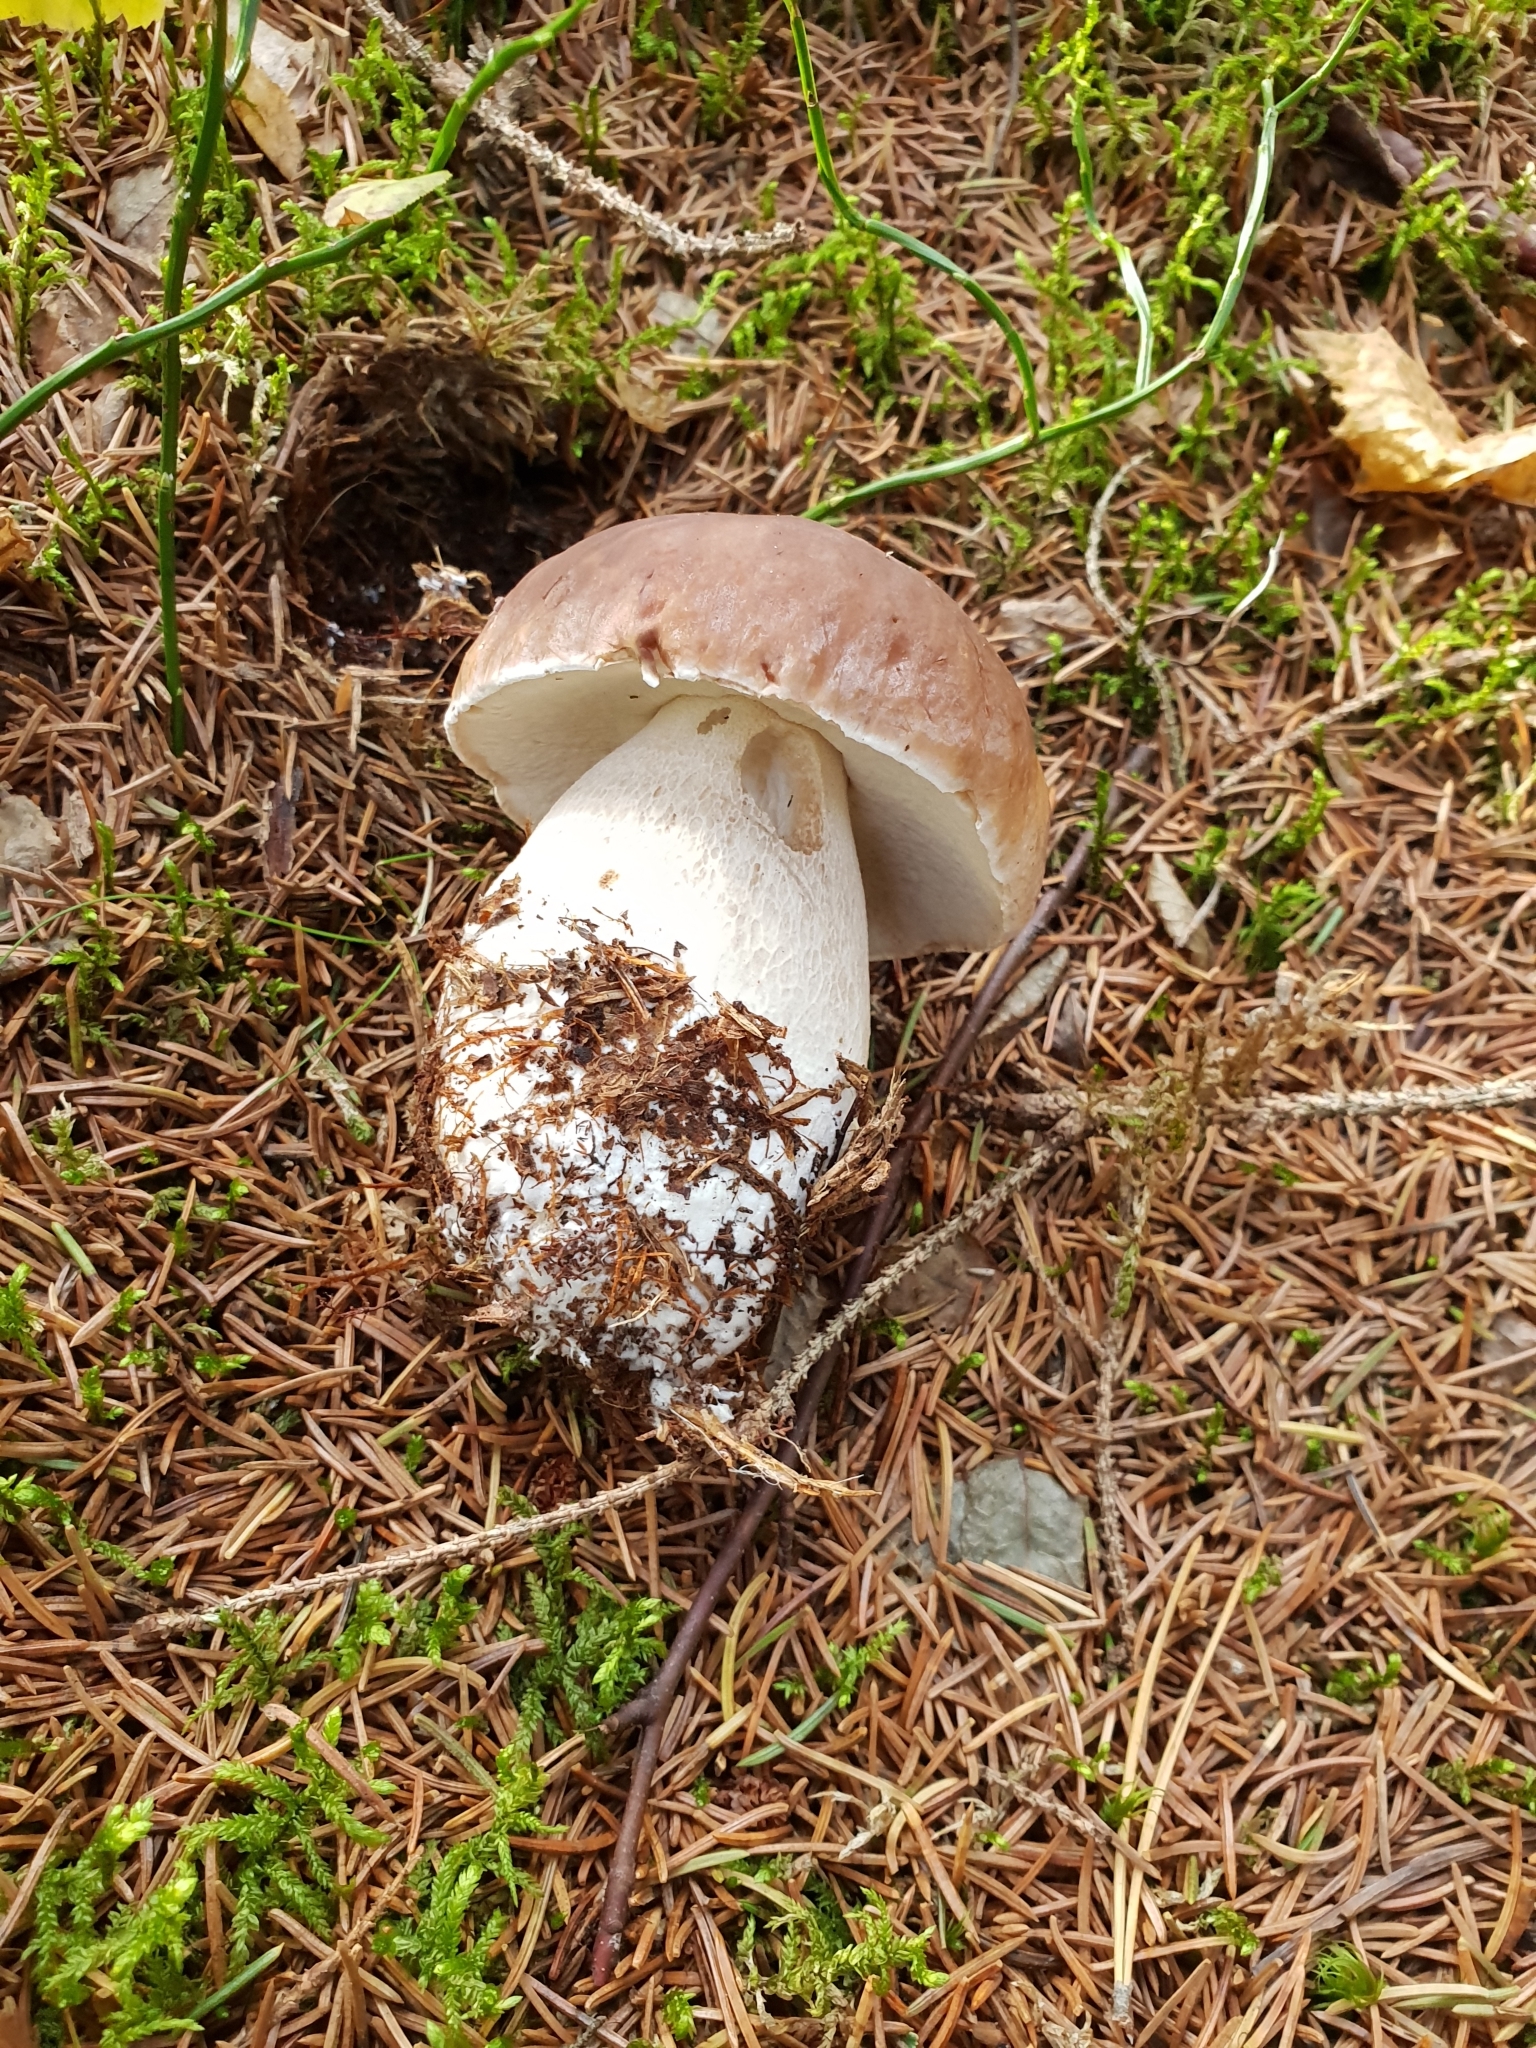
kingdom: Fungi
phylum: Basidiomycota
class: Agaricomycetes
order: Boletales
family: Boletaceae
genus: Boletus
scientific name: Boletus edulis
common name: Cep
